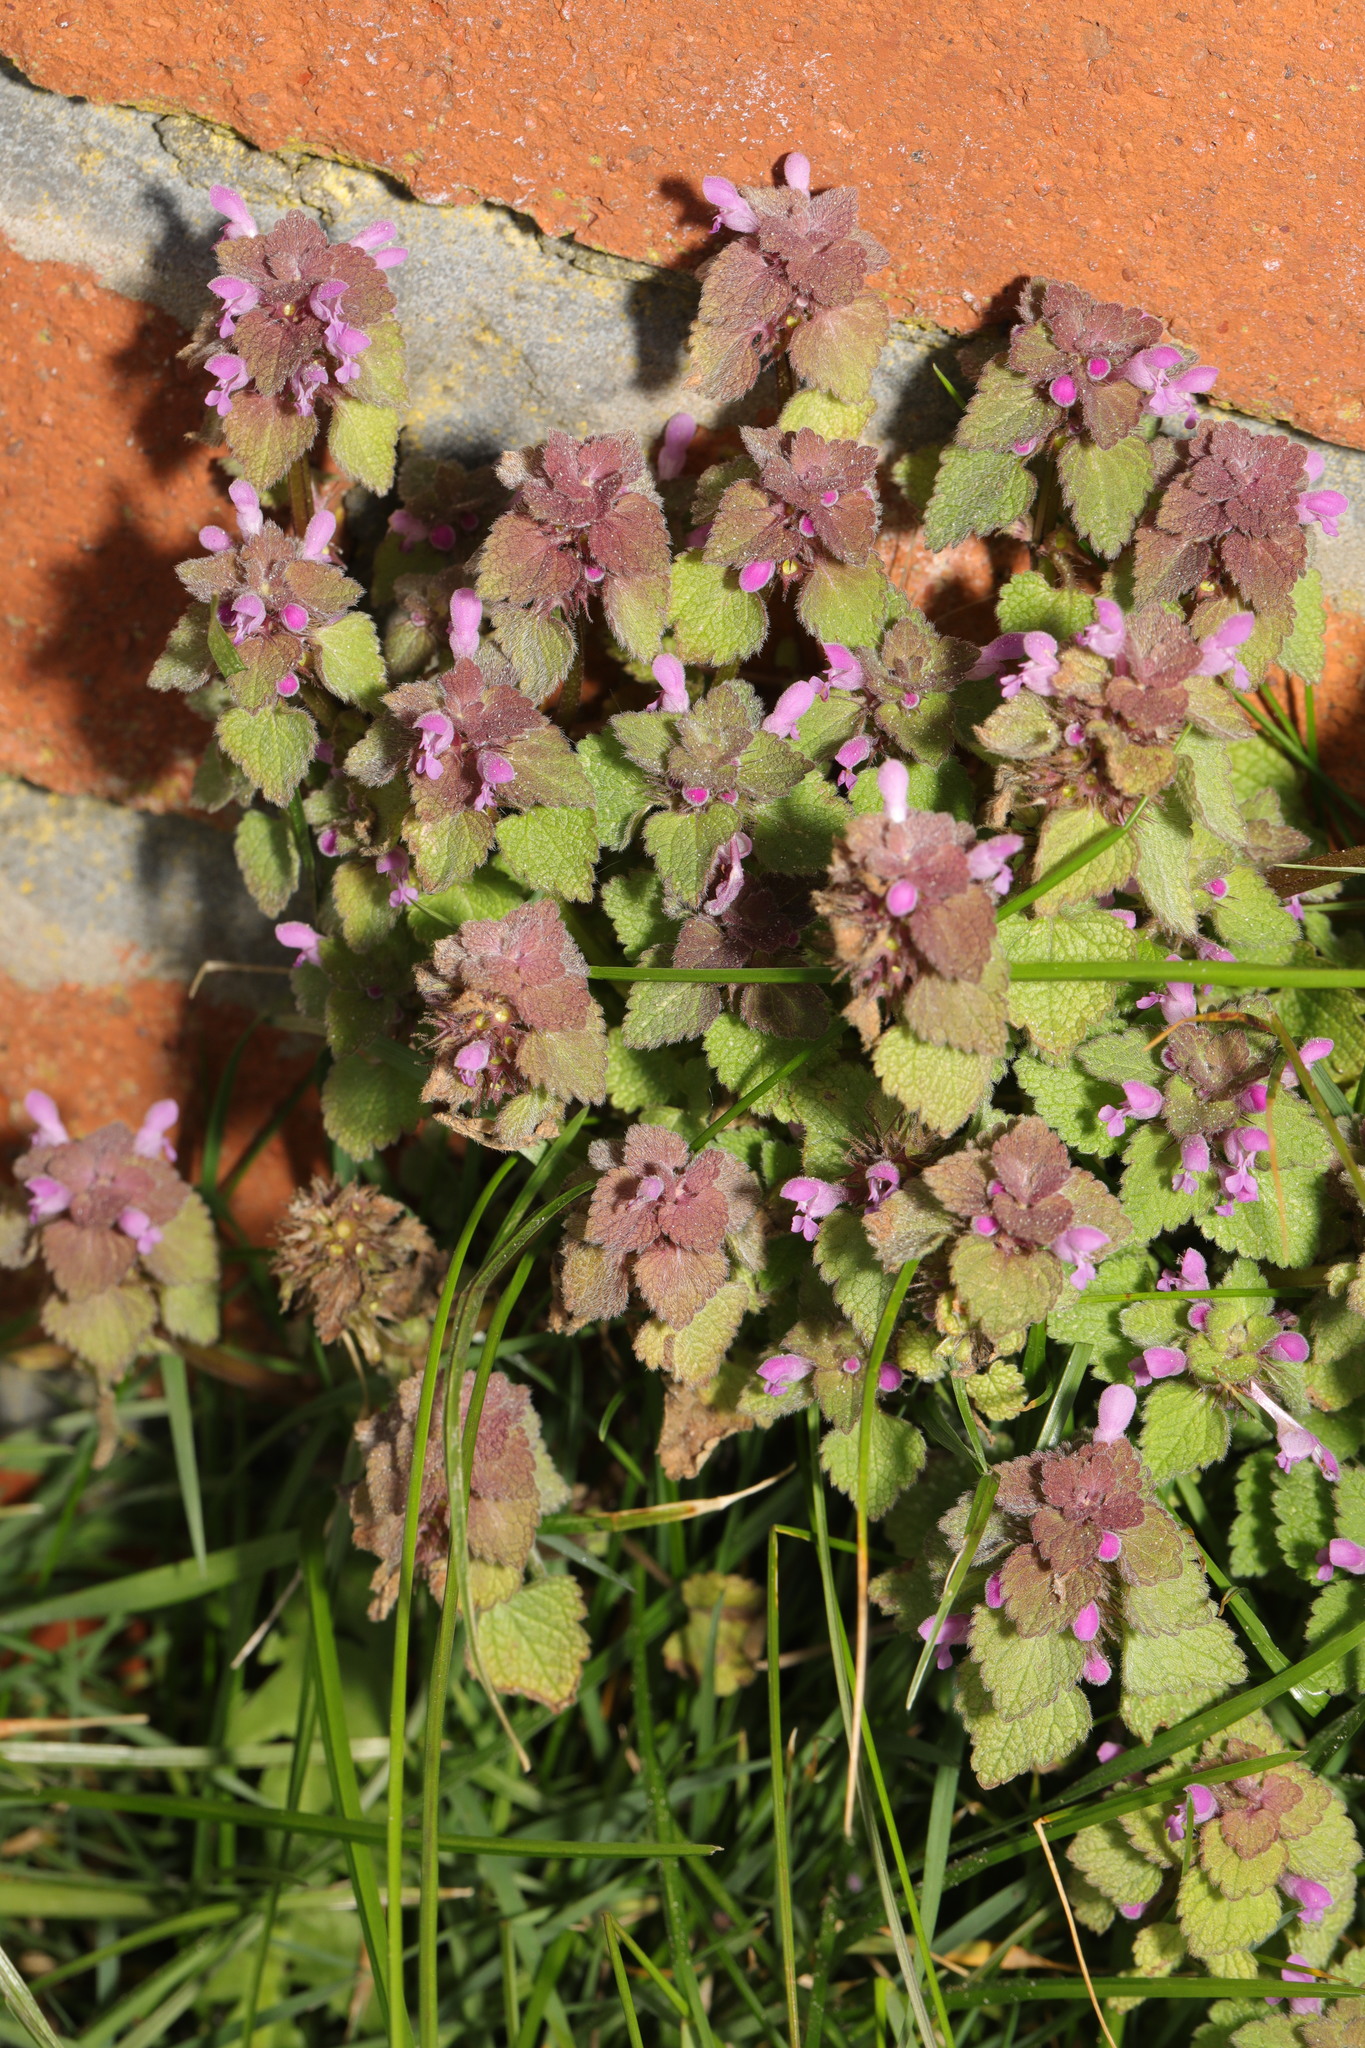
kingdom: Plantae
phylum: Tracheophyta
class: Magnoliopsida
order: Lamiales
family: Lamiaceae
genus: Lamium
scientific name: Lamium purpureum
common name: Red dead-nettle
